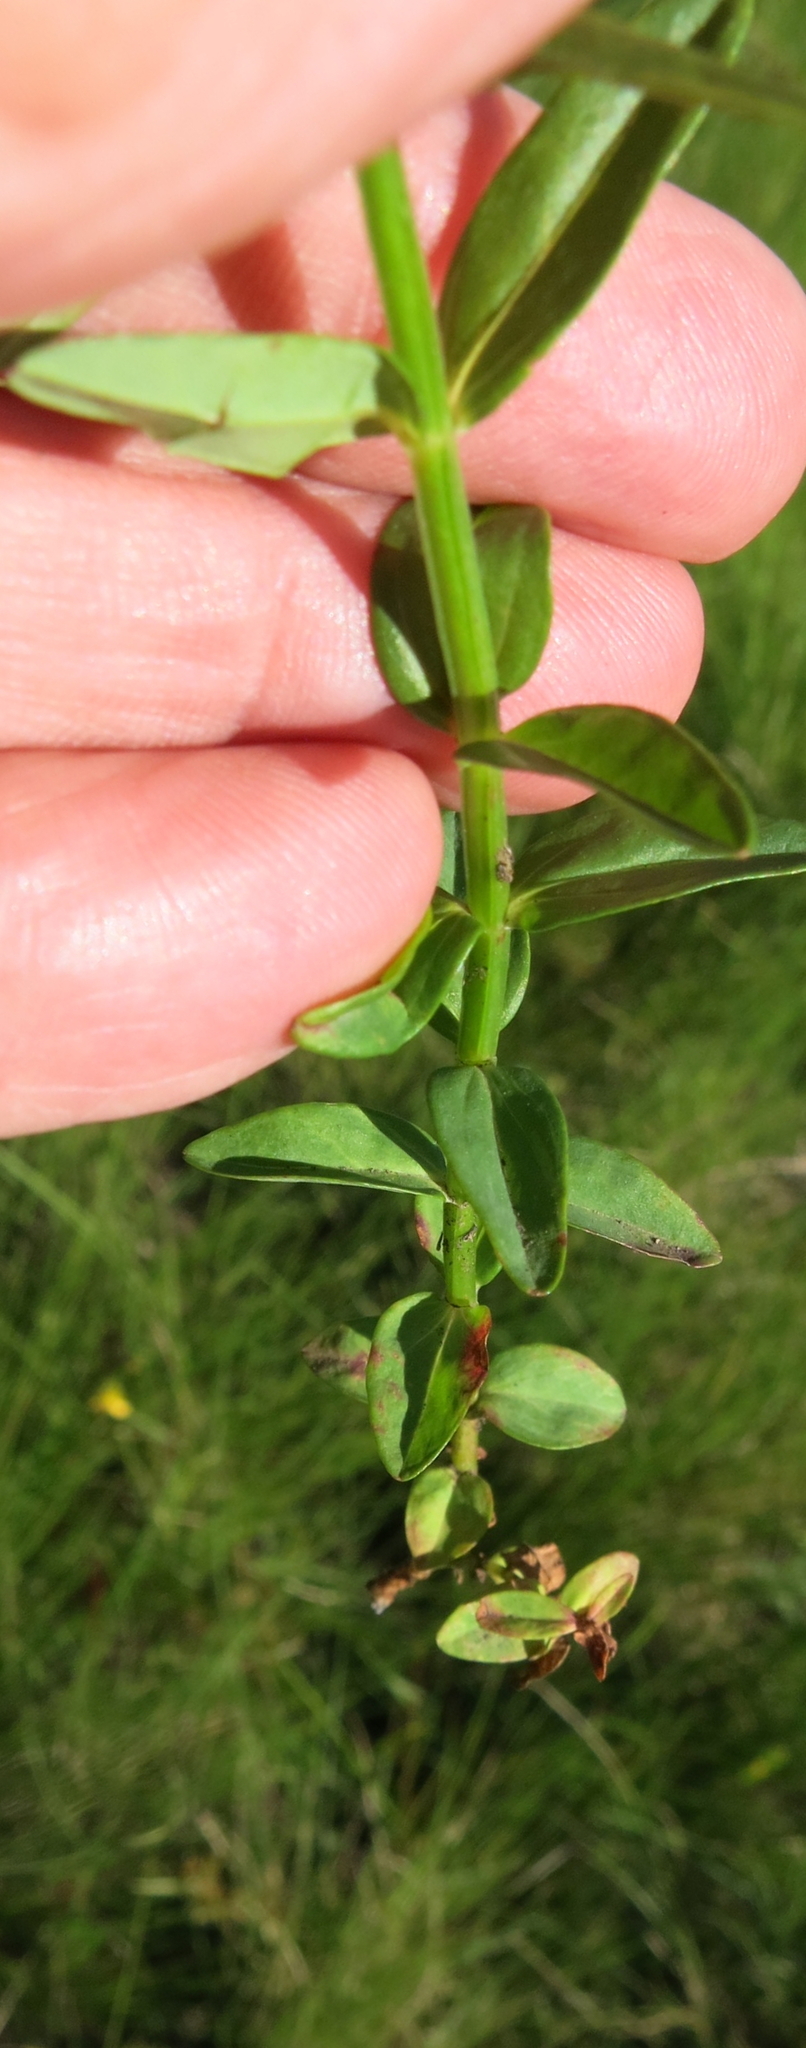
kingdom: Plantae
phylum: Tracheophyta
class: Magnoliopsida
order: Malpighiales
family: Hypericaceae
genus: Hypericum
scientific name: Hypericum lalandii
